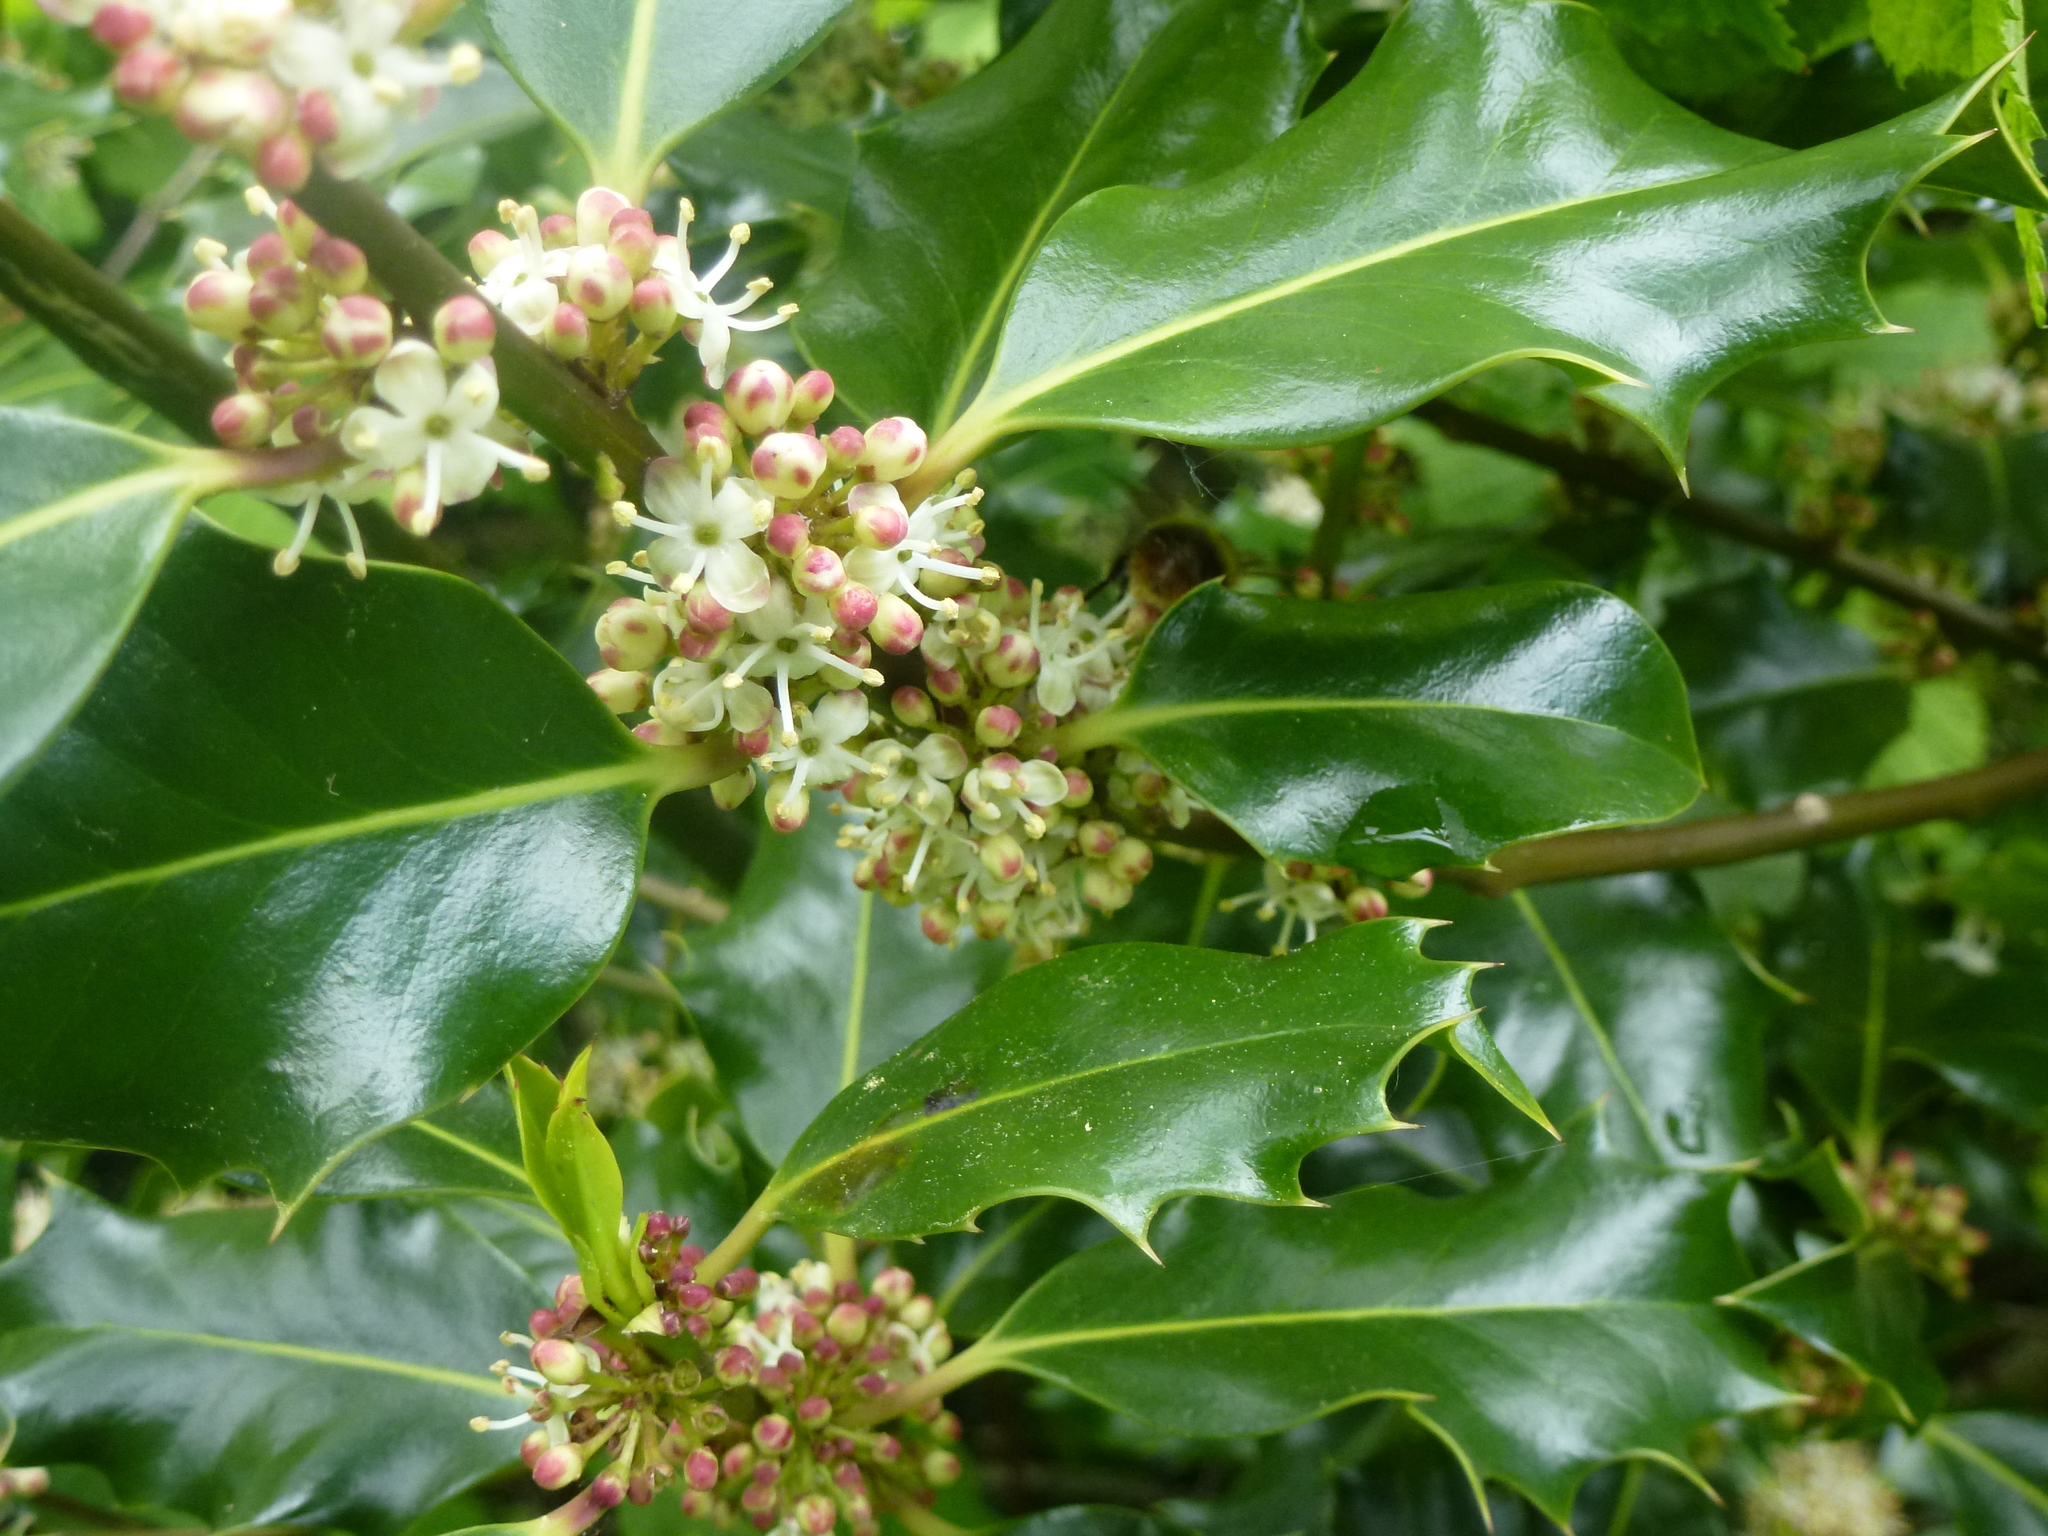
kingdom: Plantae
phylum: Tracheophyta
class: Magnoliopsida
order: Aquifoliales
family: Aquifoliaceae
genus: Ilex
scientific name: Ilex aquifolium
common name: English holly
